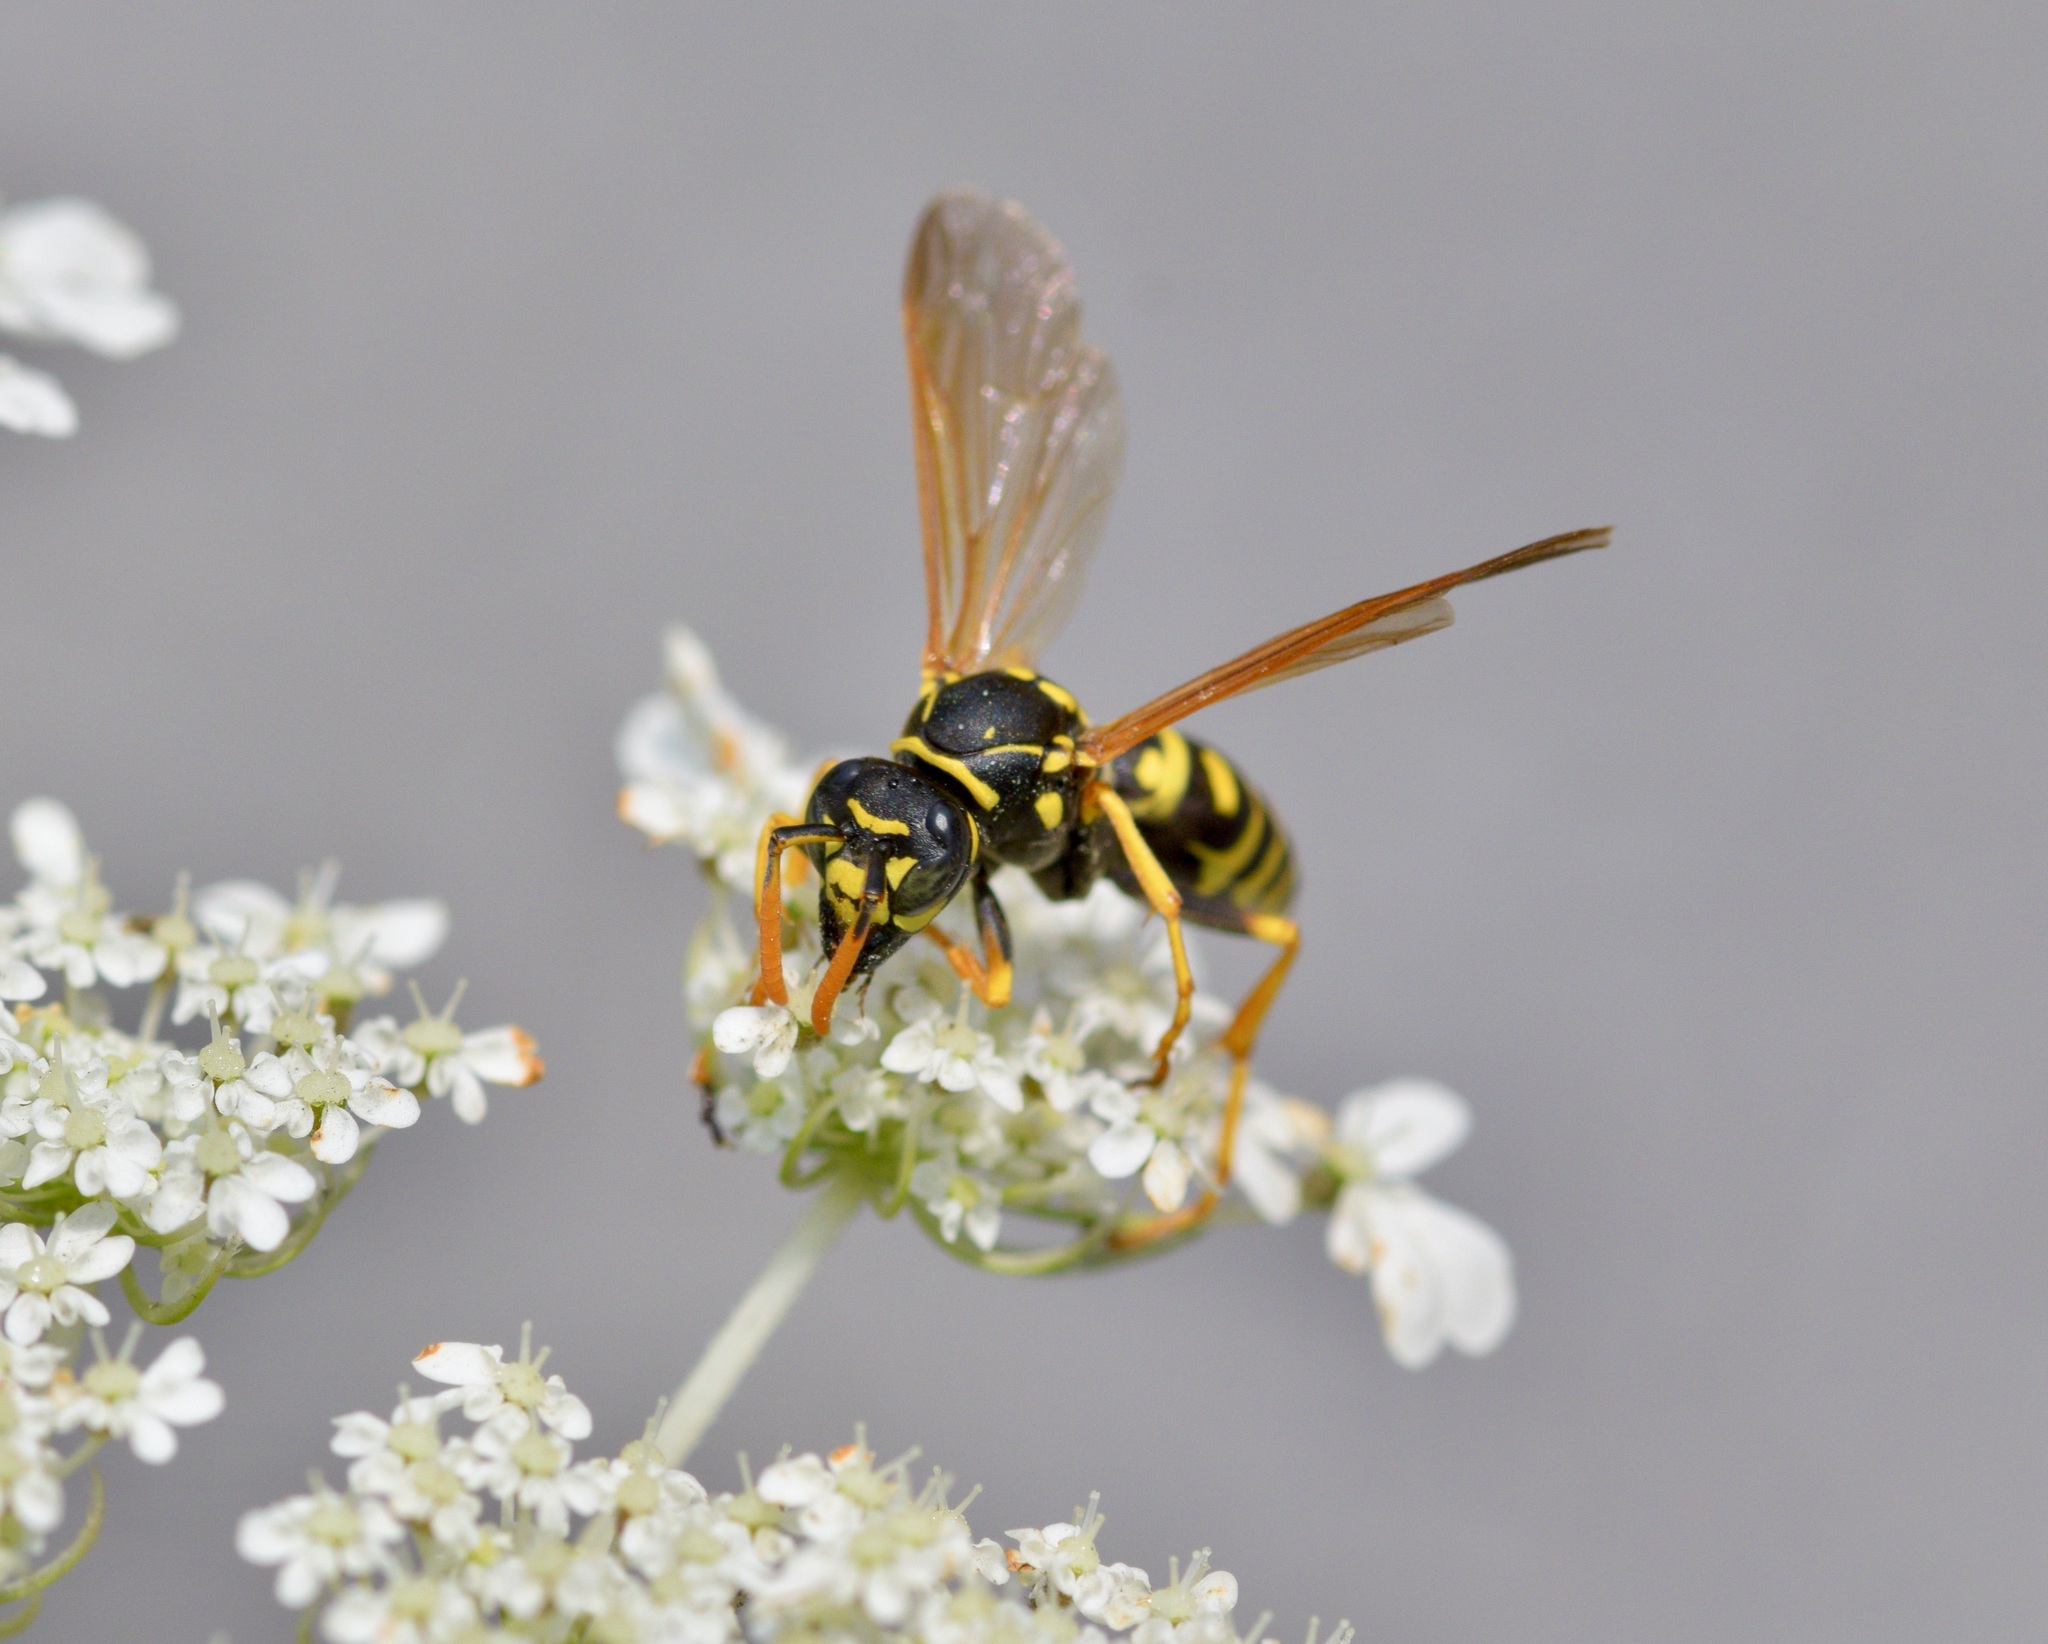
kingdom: Animalia
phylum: Arthropoda
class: Insecta
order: Hymenoptera
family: Eumenidae
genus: Polistes
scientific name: Polistes dominula
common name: Paper wasp
